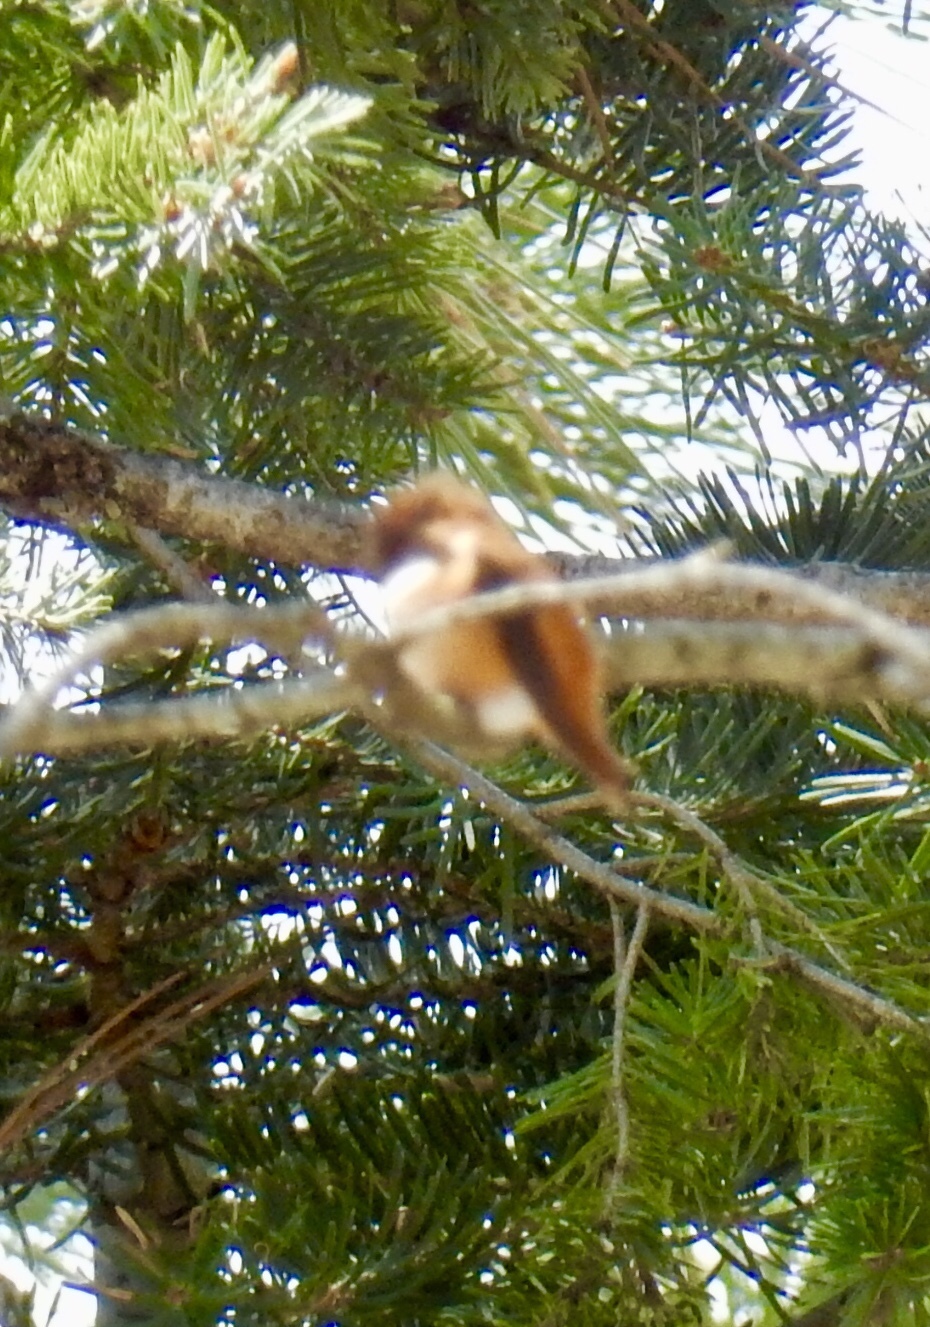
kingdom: Animalia
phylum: Chordata
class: Aves
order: Apodiformes
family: Trochilidae
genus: Selasphorus
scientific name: Selasphorus rufus
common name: Rufous hummingbird
